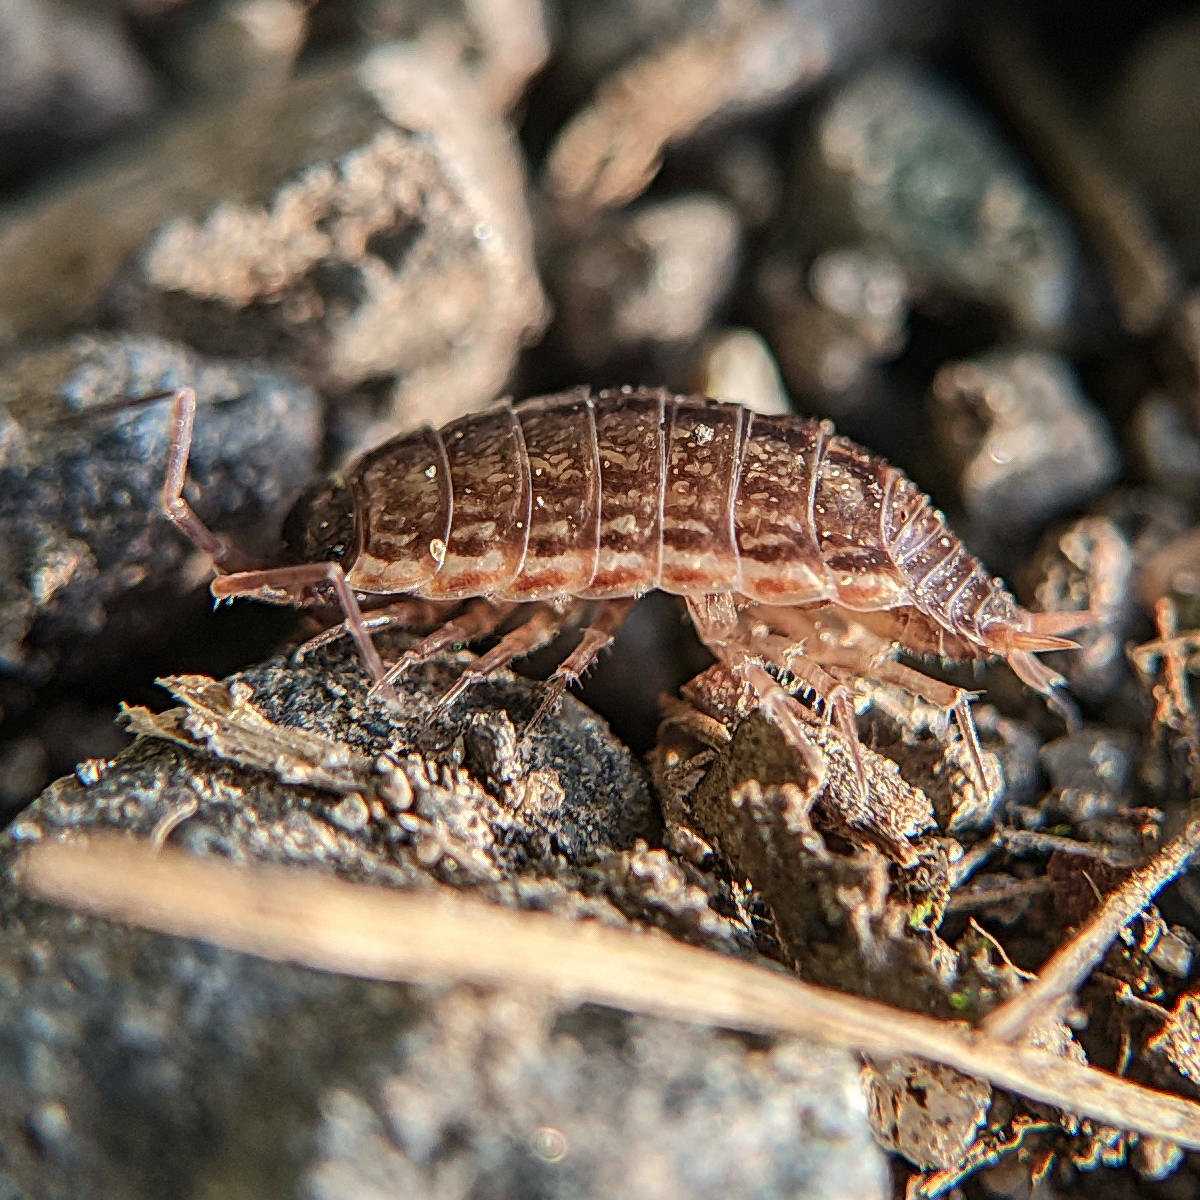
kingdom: Animalia
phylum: Arthropoda
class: Malacostraca
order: Isopoda
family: Philosciidae
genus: Philoscia
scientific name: Philoscia muscorum
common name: Common striped woodlouse
